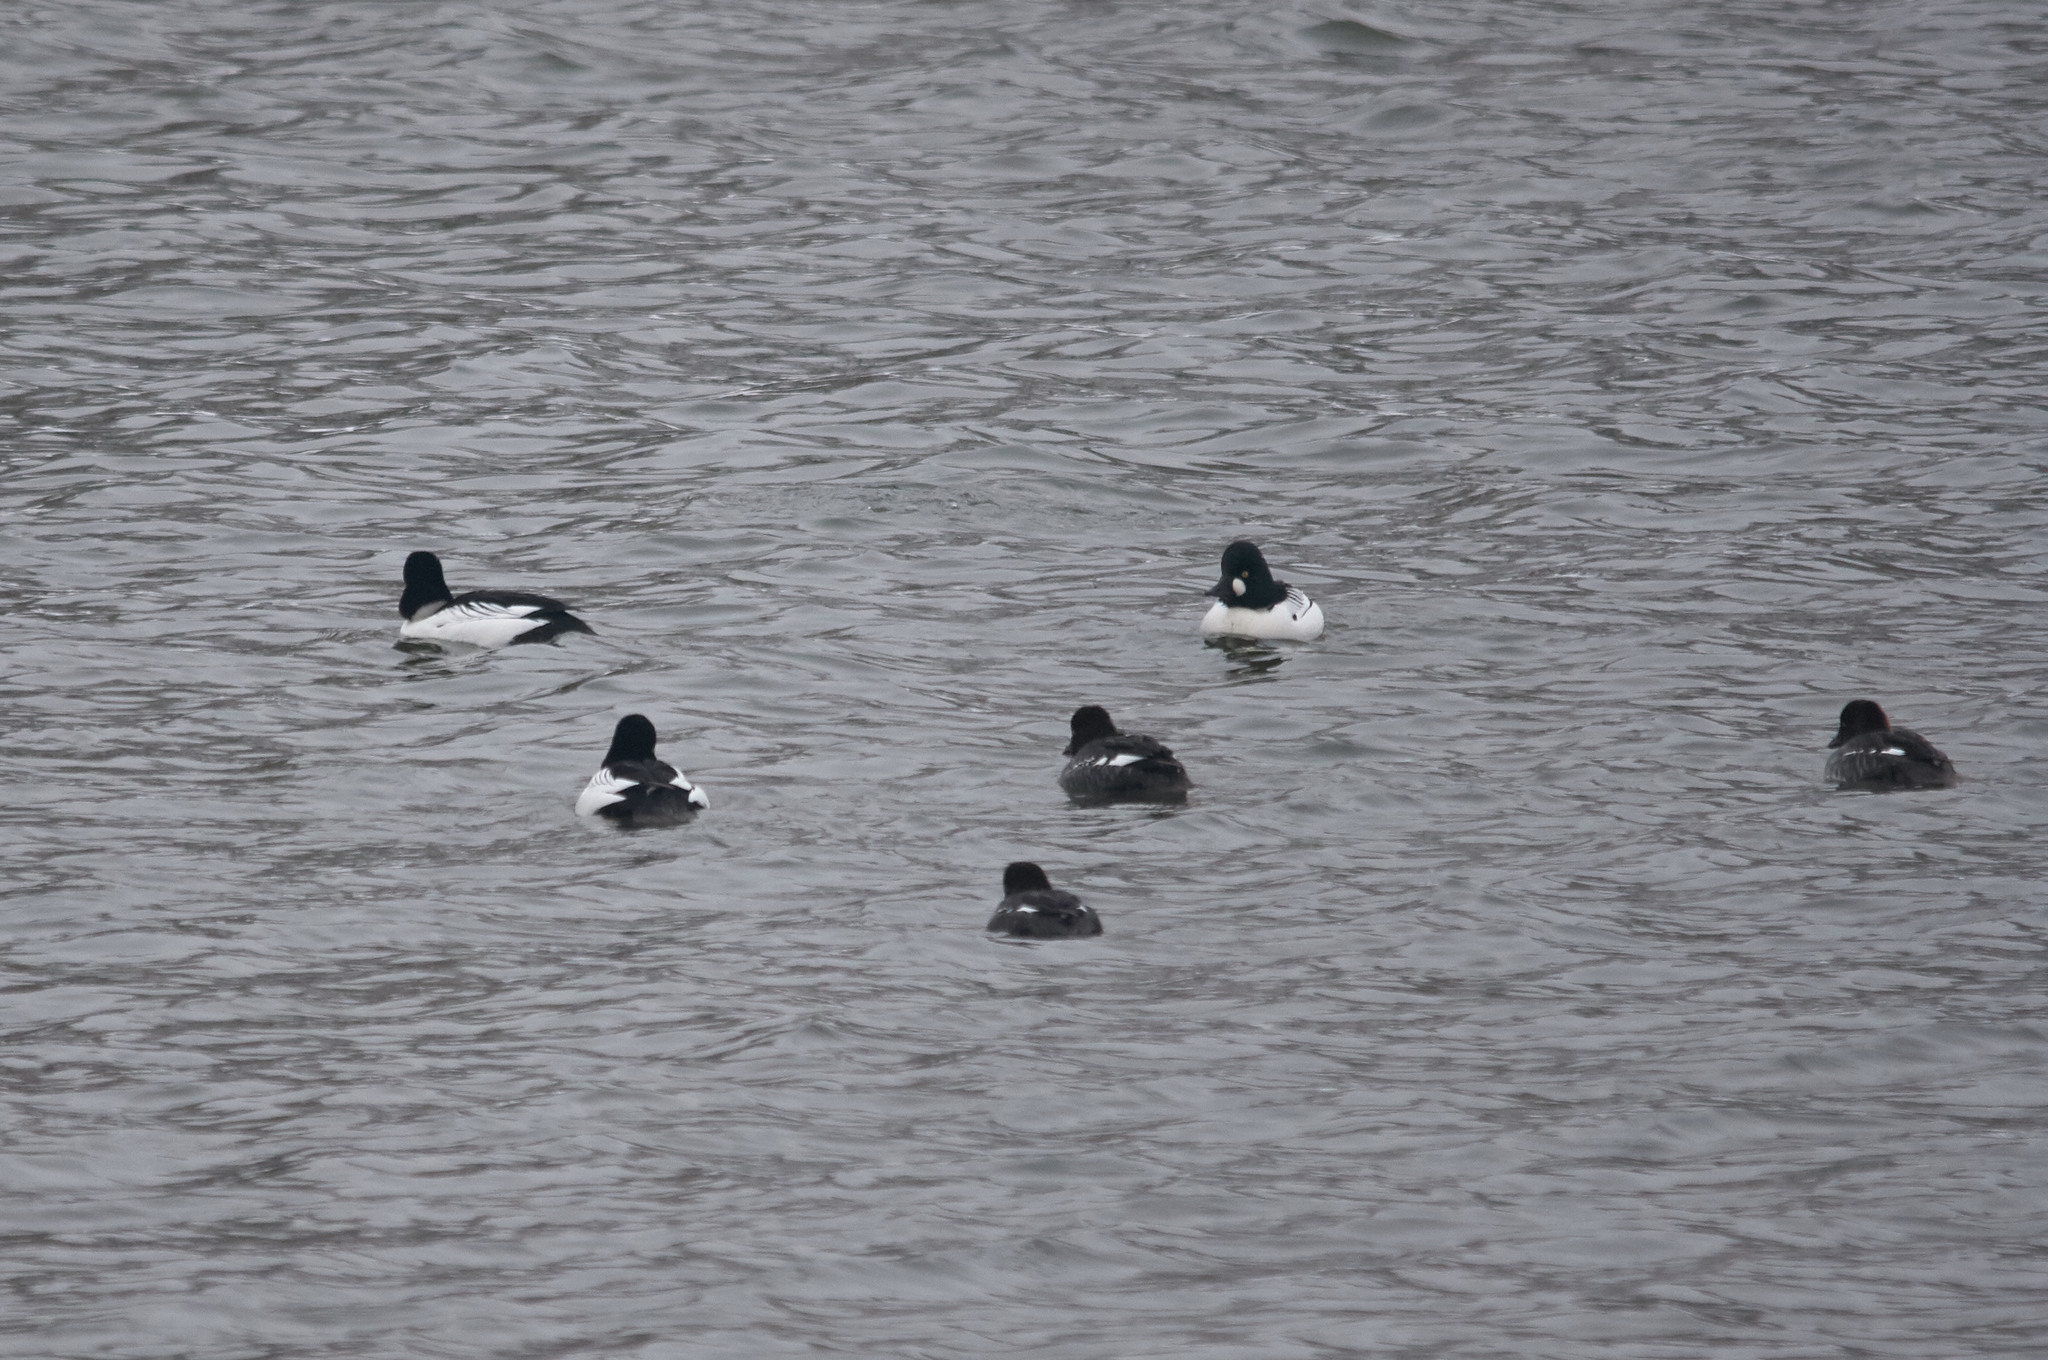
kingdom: Animalia
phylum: Chordata
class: Aves
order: Anseriformes
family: Anatidae
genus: Bucephala
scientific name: Bucephala clangula
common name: Common goldeneye
